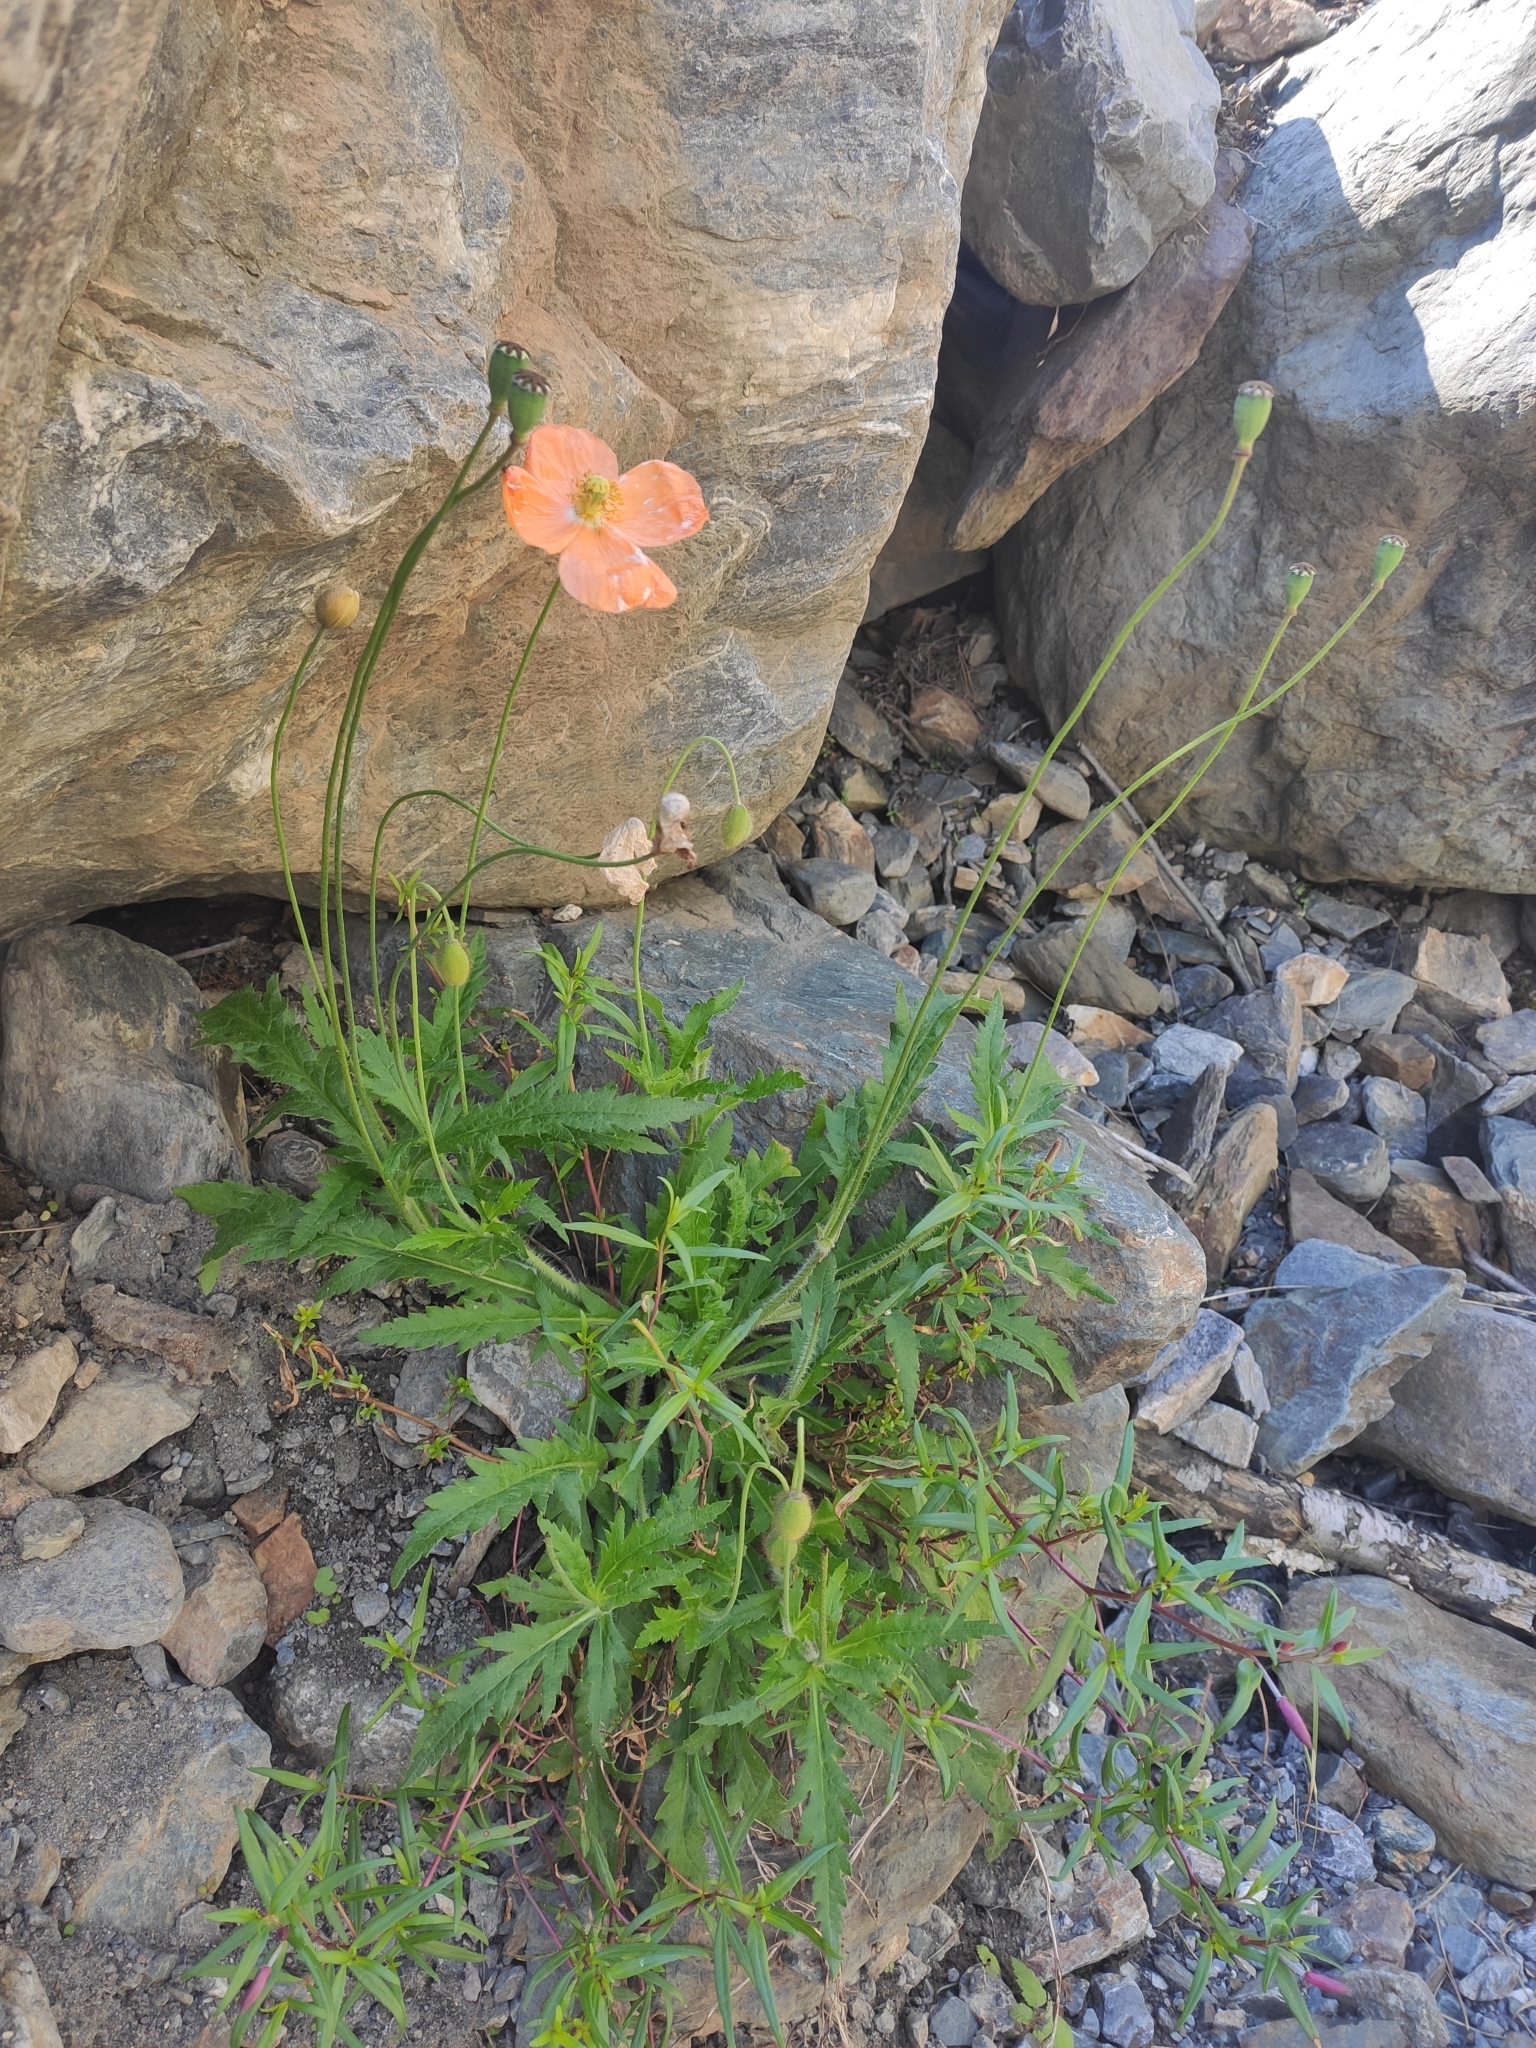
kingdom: Plantae
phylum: Tracheophyta
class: Magnoliopsida
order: Ranunculales
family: Papaveraceae
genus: Papaver
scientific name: Papaver oreophilum
